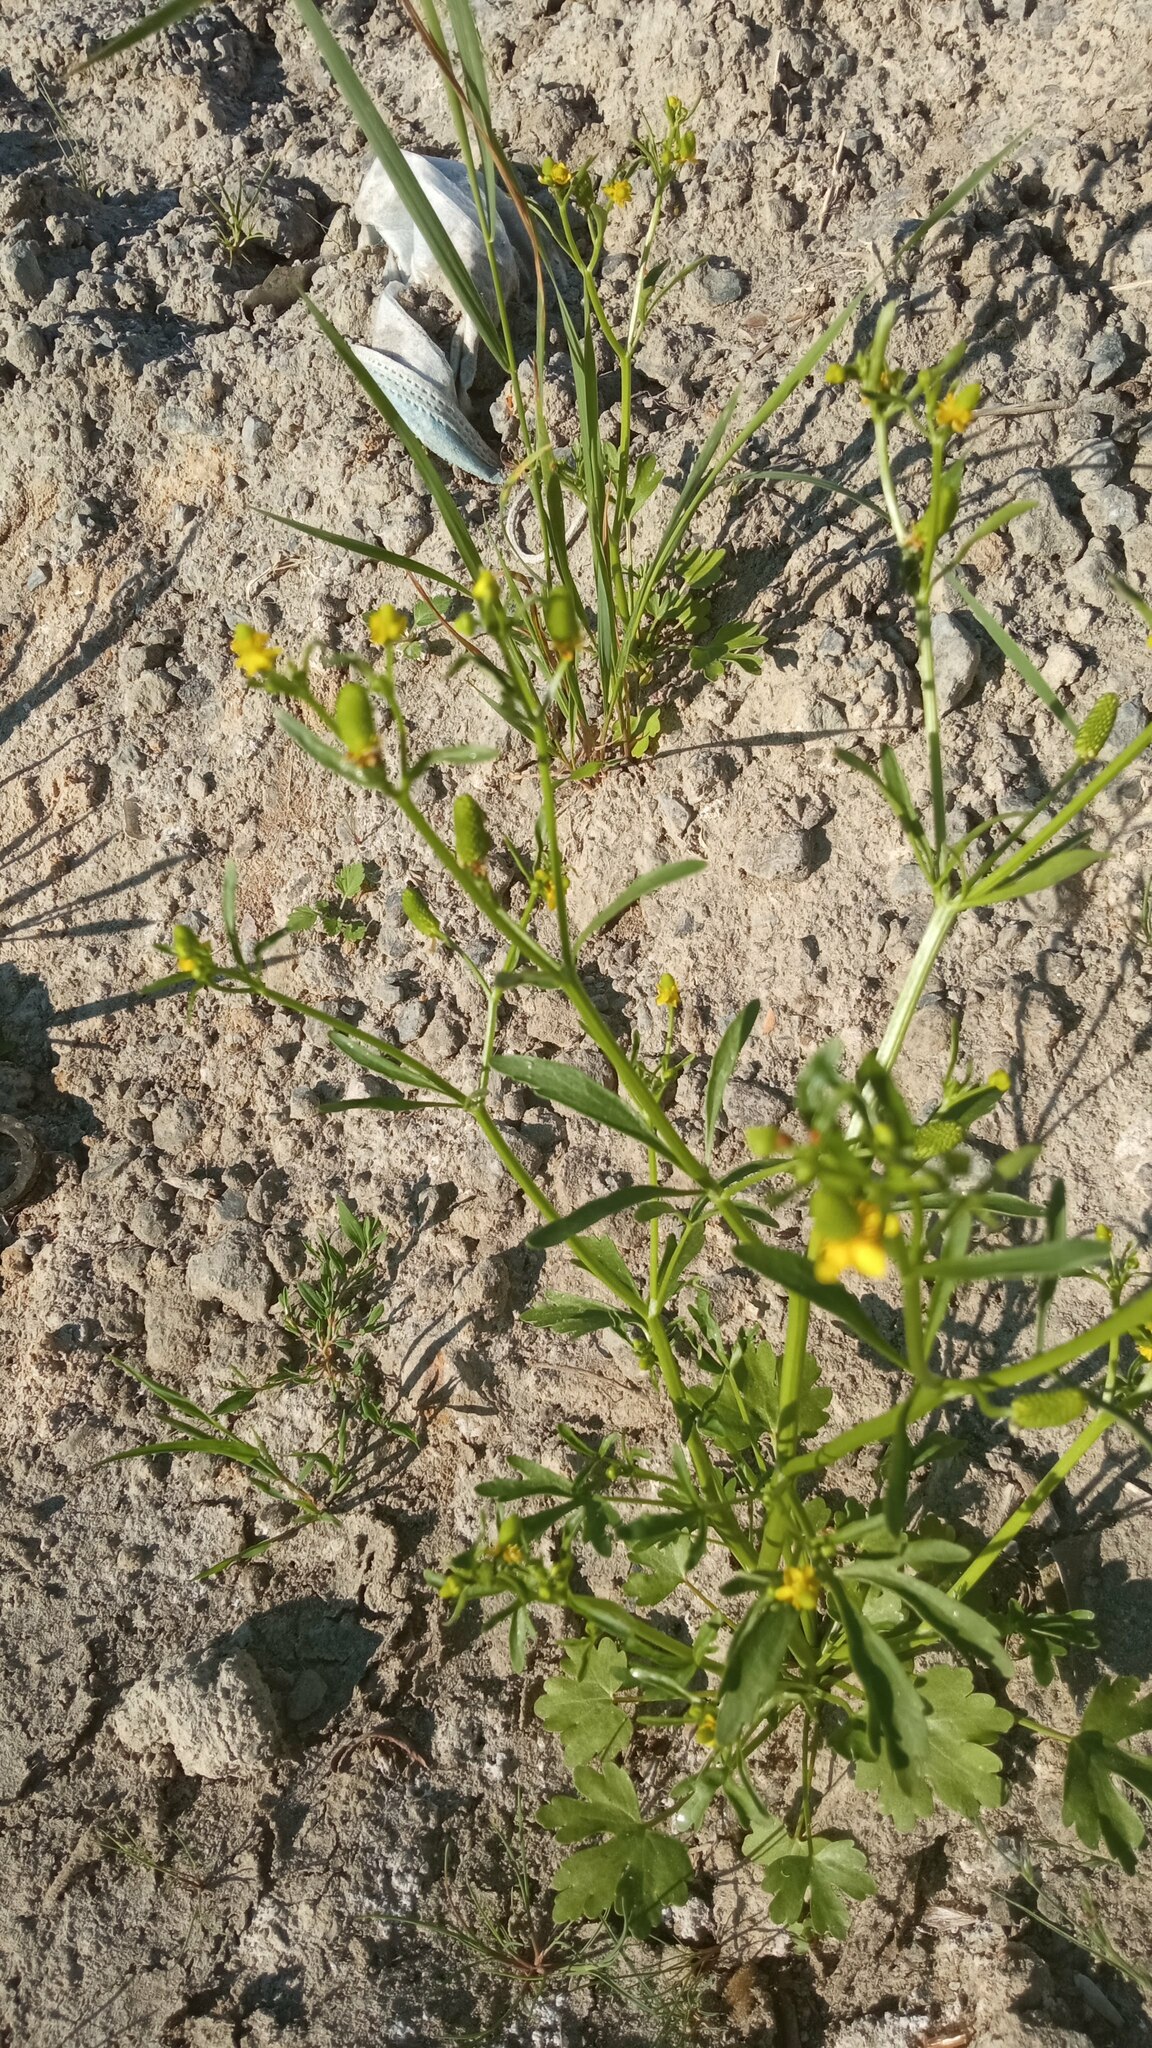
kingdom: Plantae
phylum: Tracheophyta
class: Magnoliopsida
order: Ranunculales
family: Ranunculaceae
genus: Ranunculus
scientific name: Ranunculus sceleratus
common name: Celery-leaved buttercup
